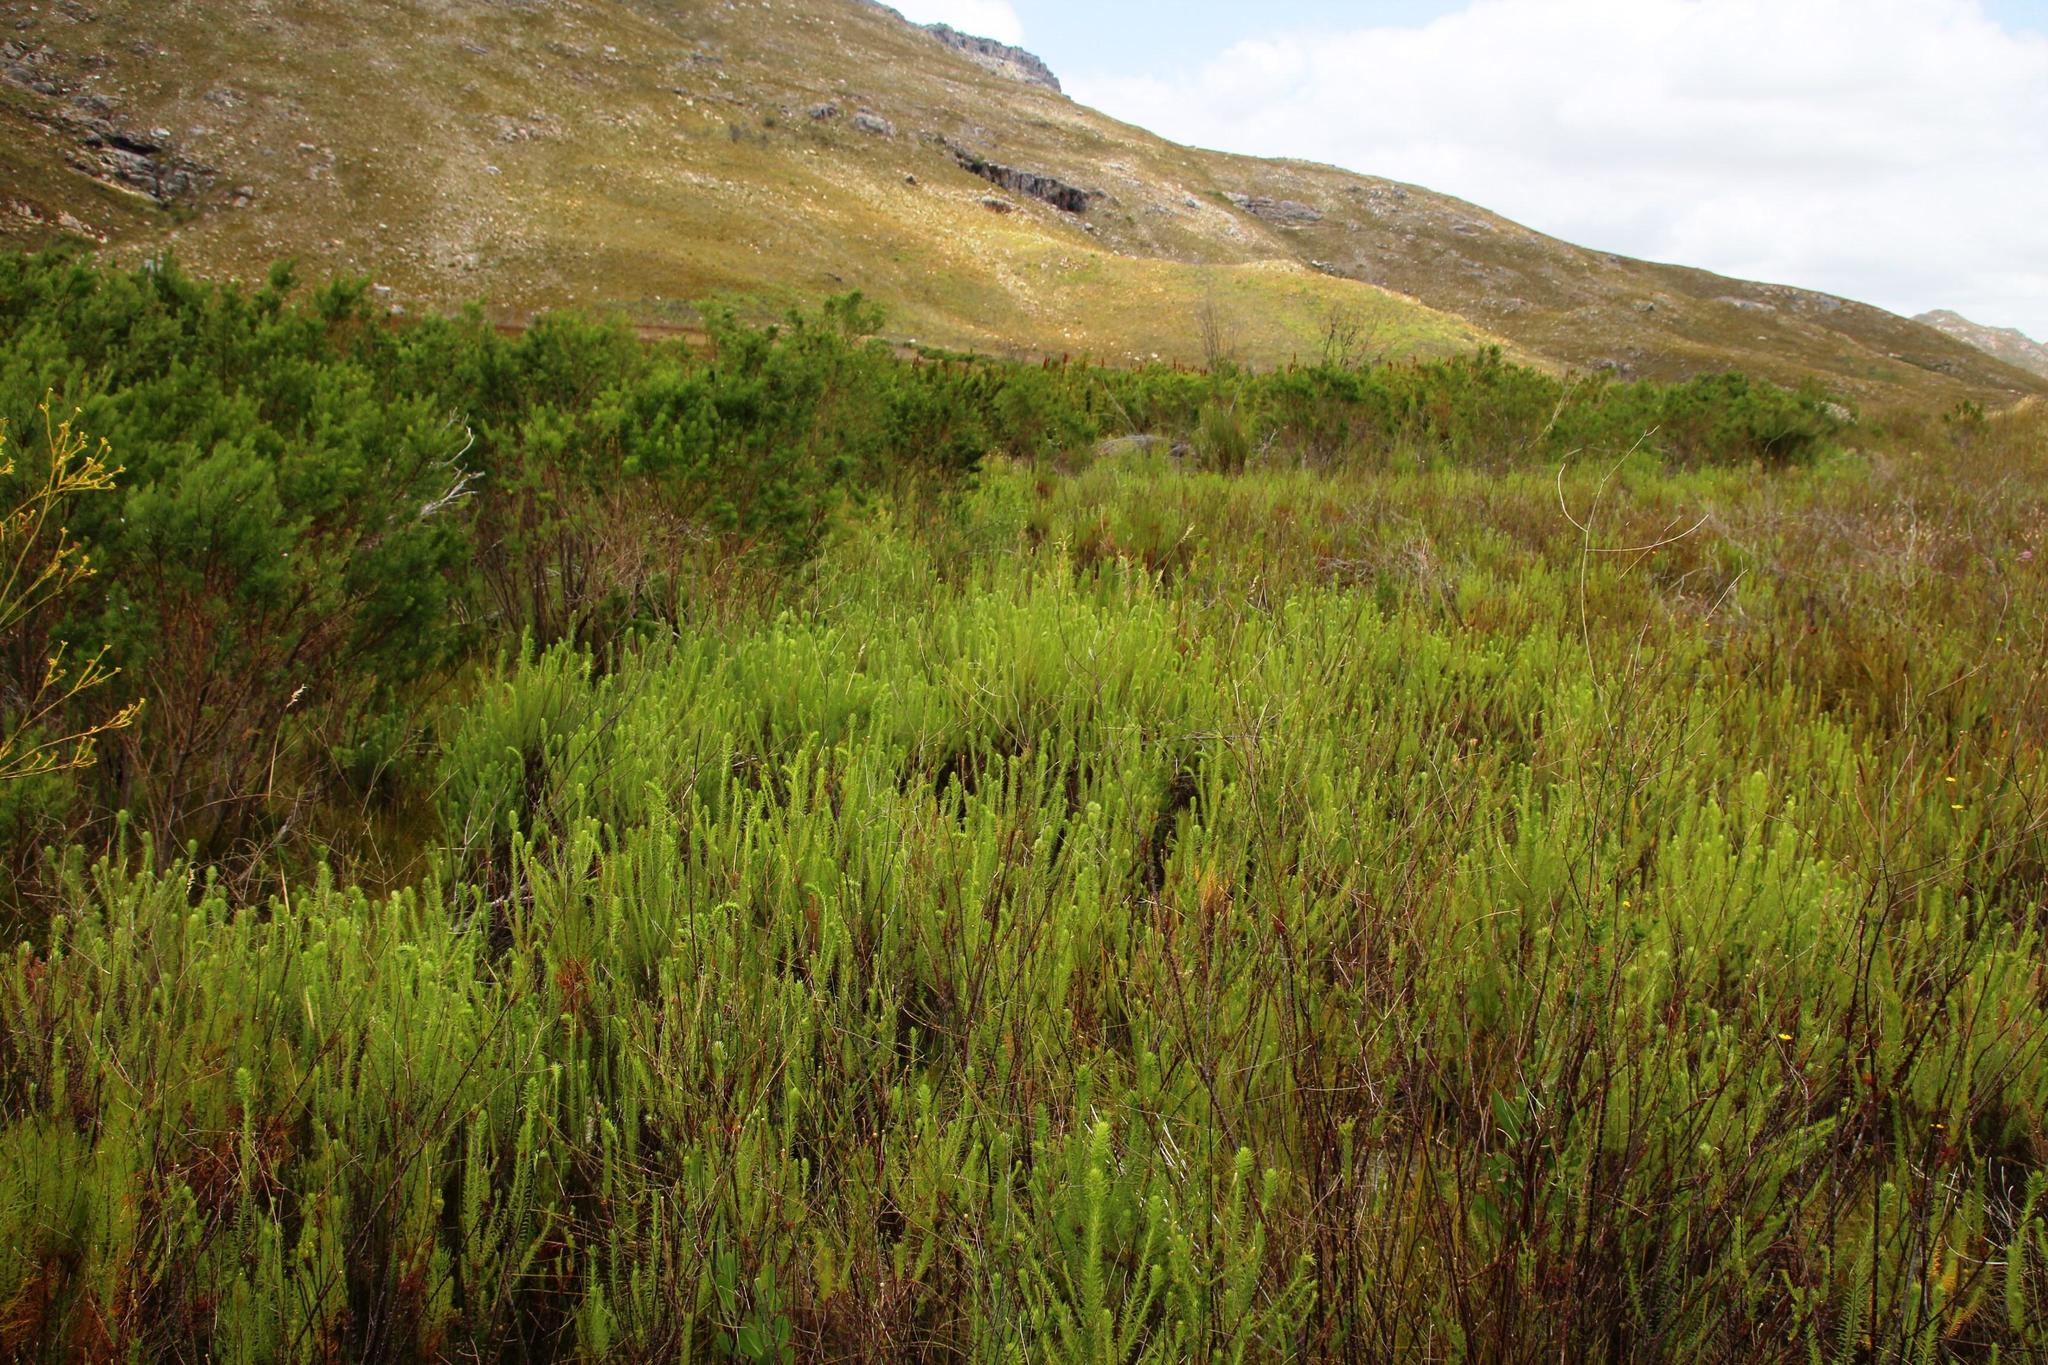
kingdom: Plantae
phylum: Tracheophyta
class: Magnoliopsida
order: Asterales
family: Asteraceae
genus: Myrovernix
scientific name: Myrovernix longifolius
